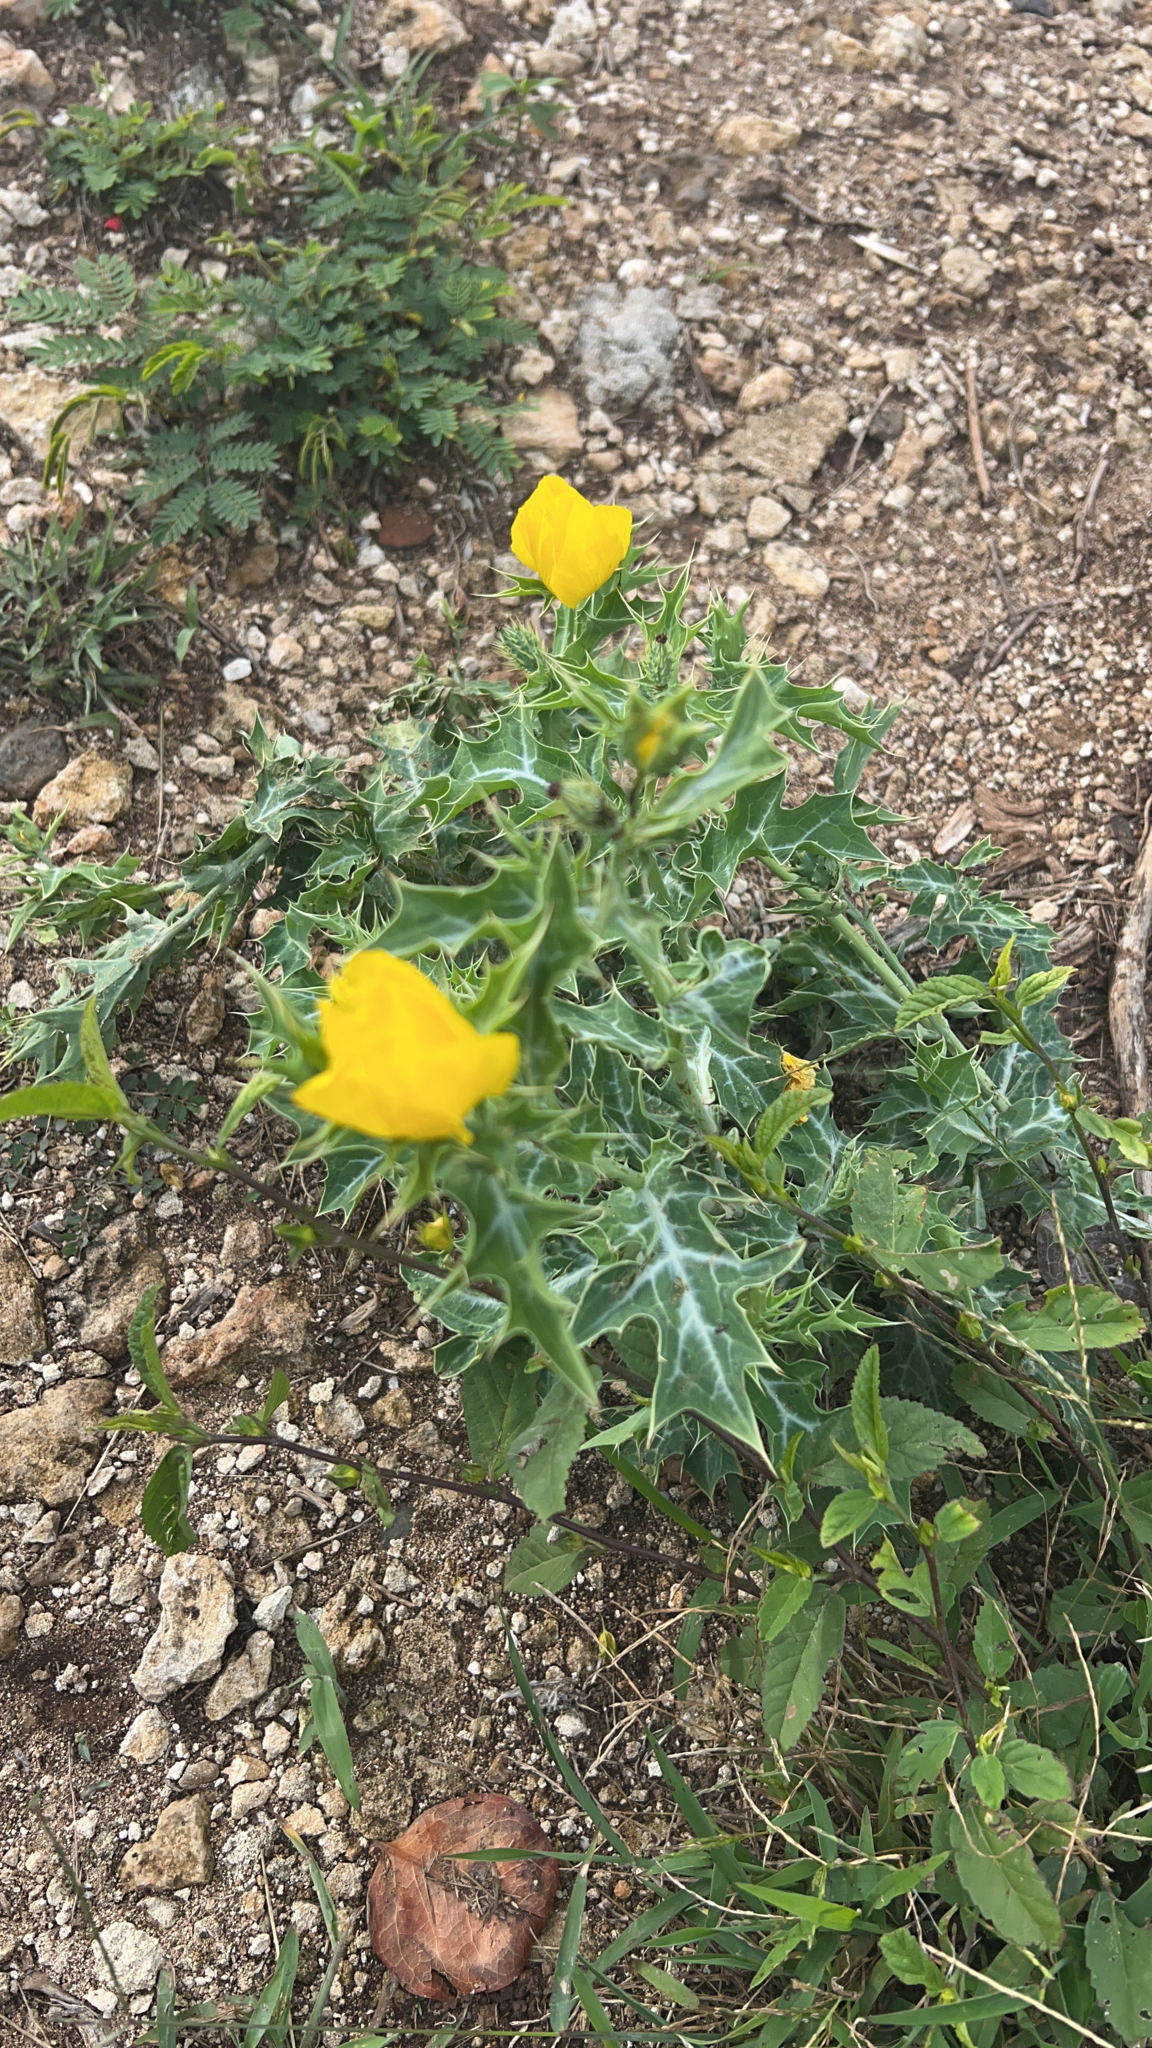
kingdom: Plantae
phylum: Tracheophyta
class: Magnoliopsida
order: Ranunculales
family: Papaveraceae
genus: Argemone
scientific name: Argemone mexicana
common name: Mexican poppy
